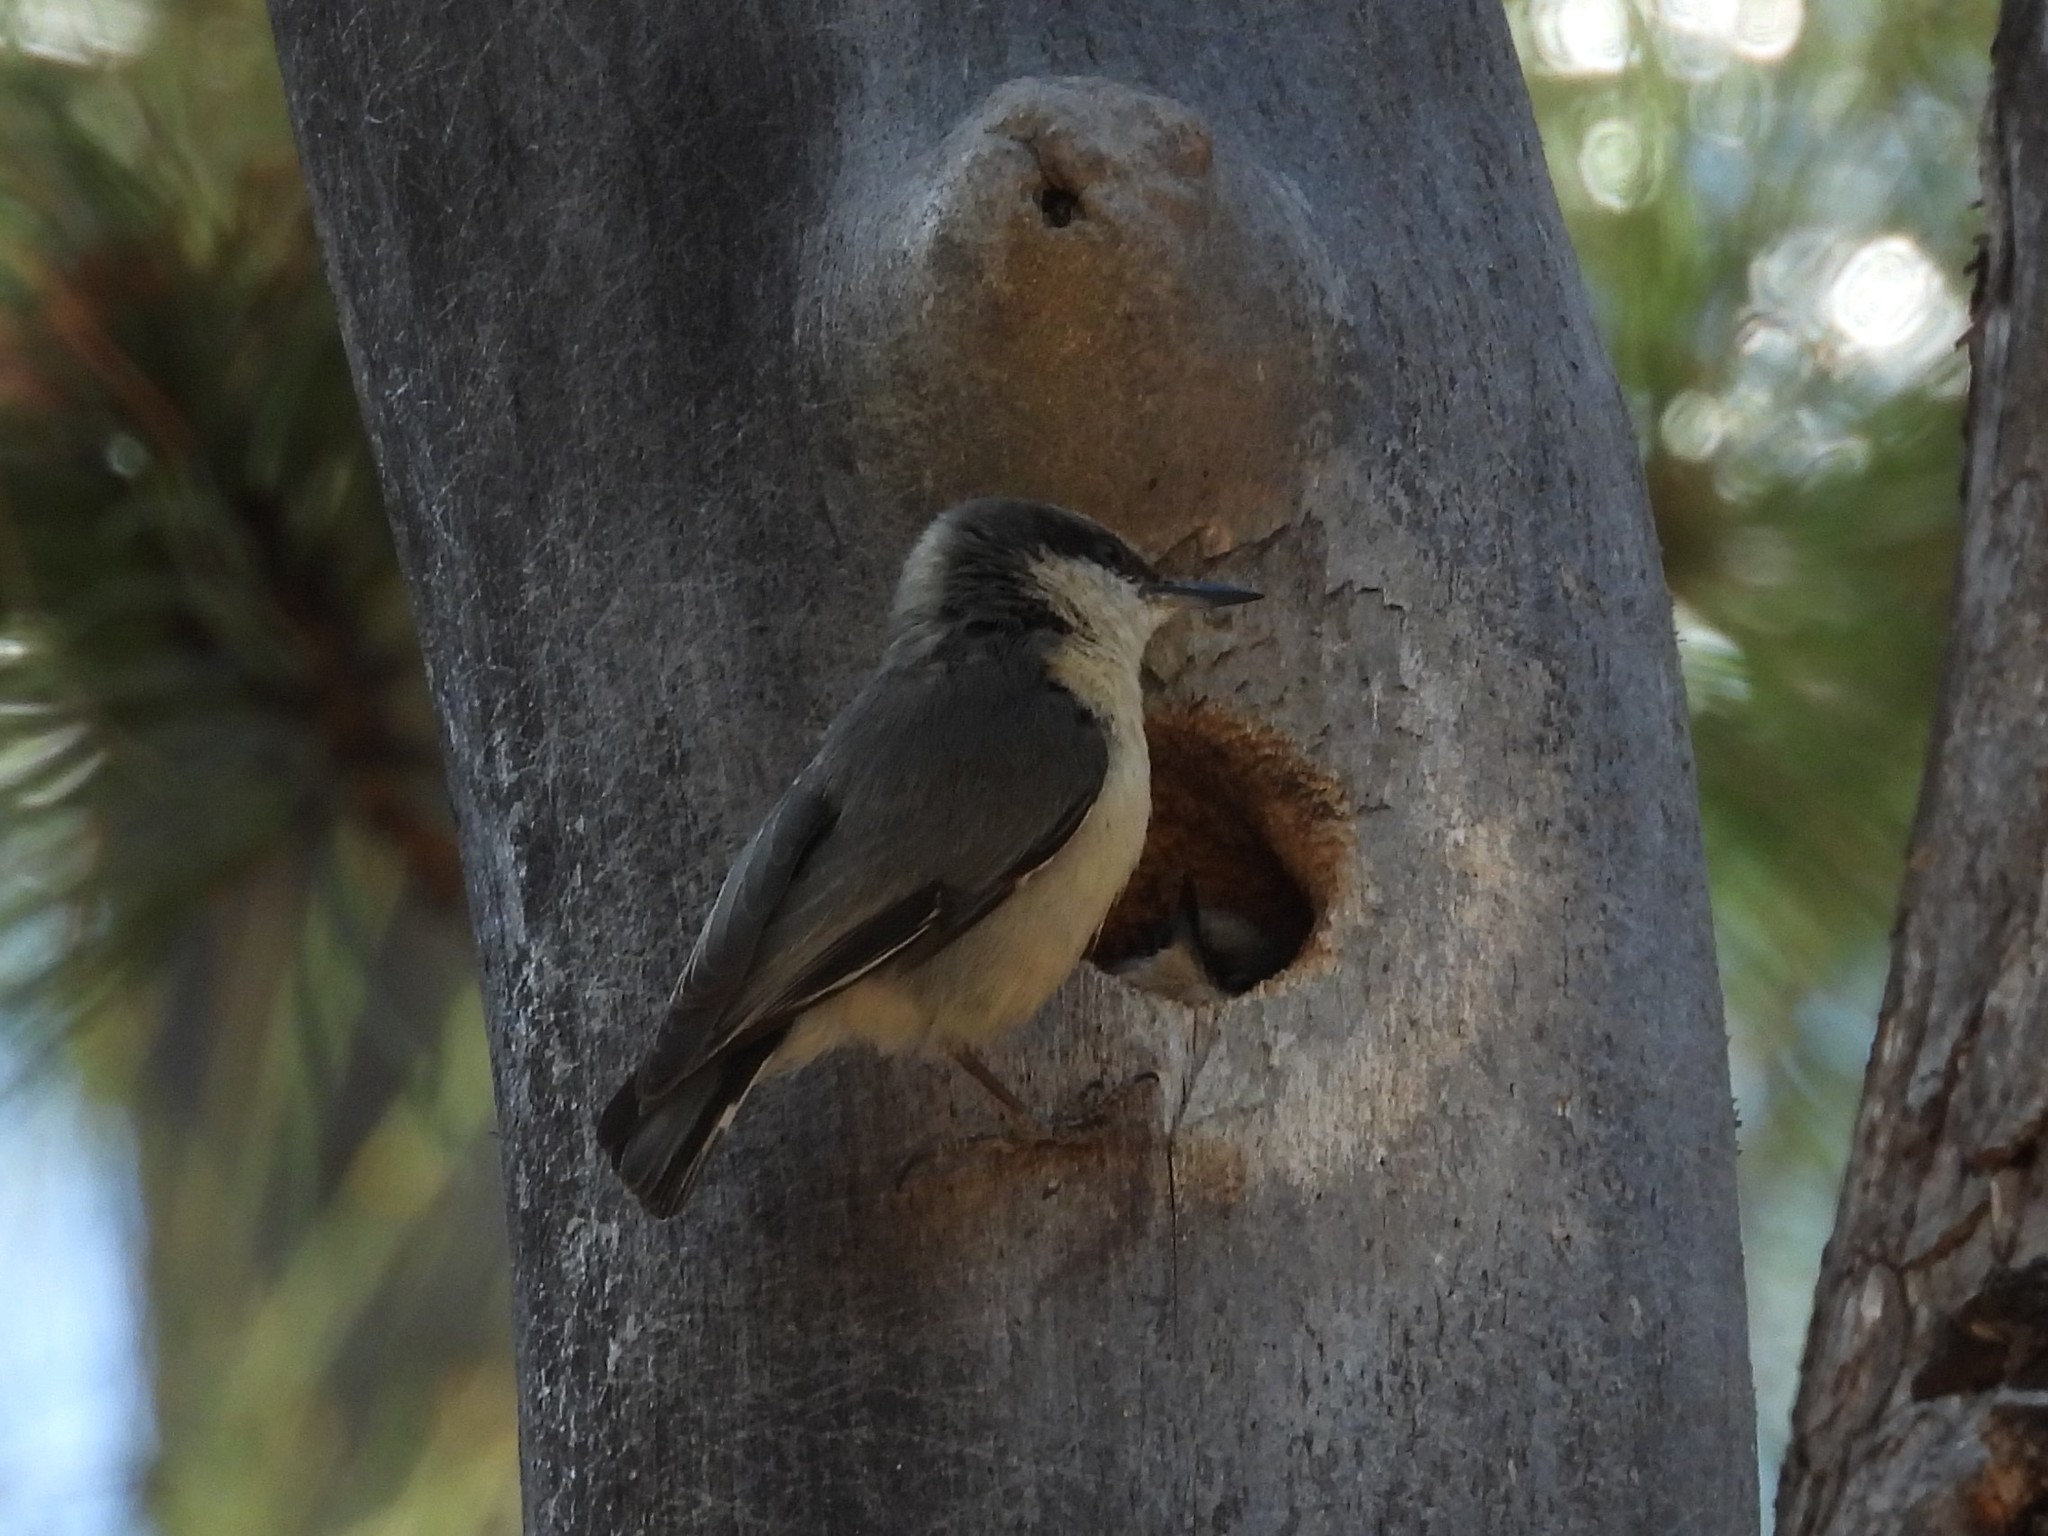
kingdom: Animalia
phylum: Chordata
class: Aves
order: Passeriformes
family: Sittidae
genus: Sitta
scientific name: Sitta pygmaea
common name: Pygmy nuthatch
